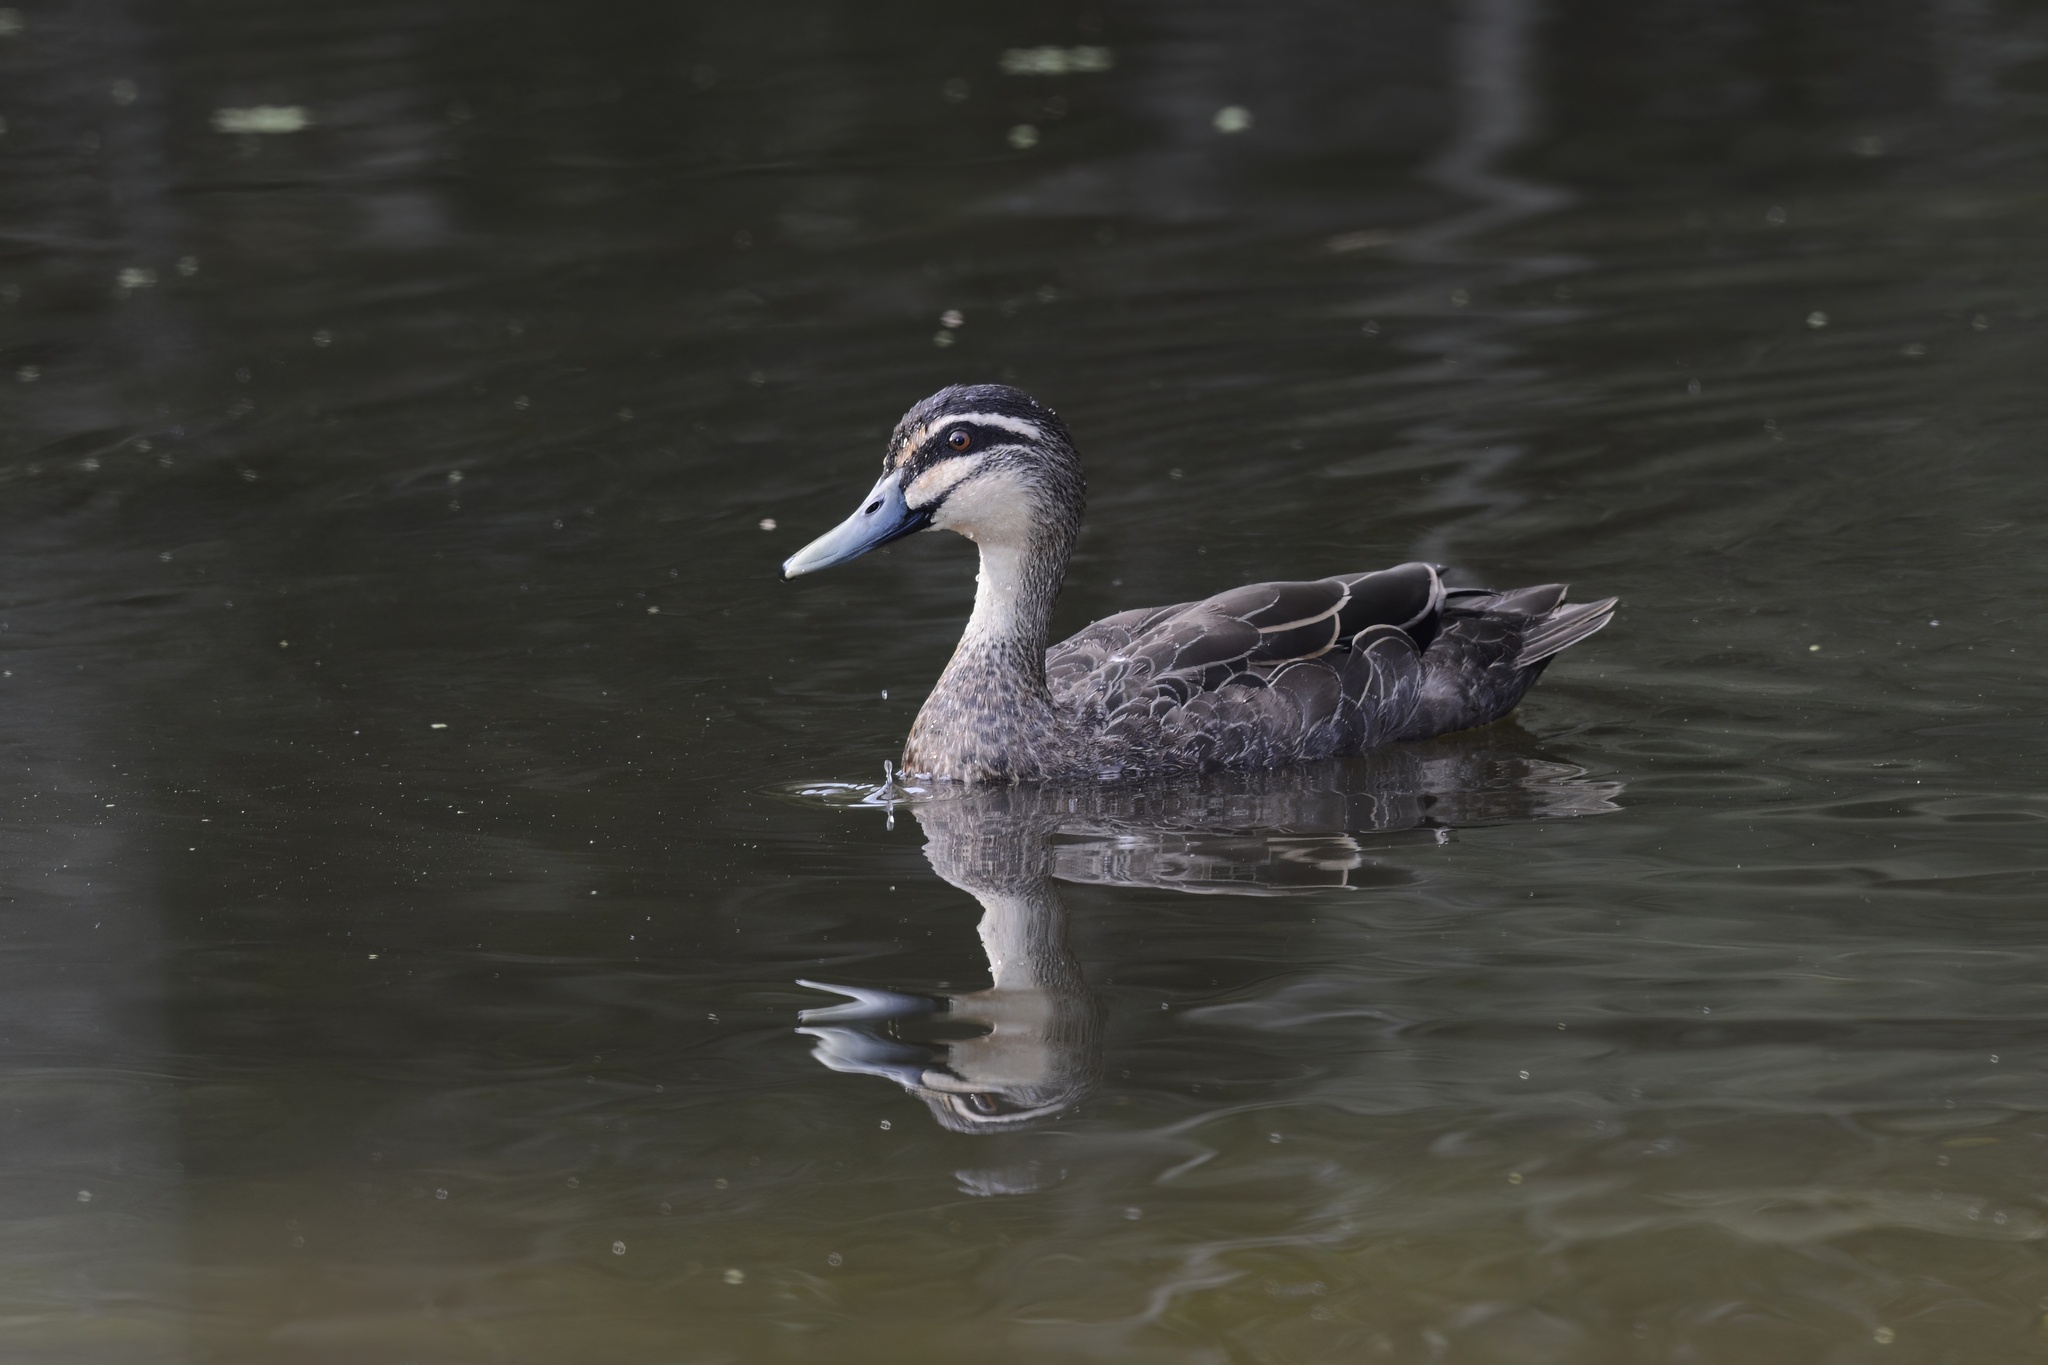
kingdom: Animalia
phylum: Chordata
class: Aves
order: Anseriformes
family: Anatidae
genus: Anas
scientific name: Anas superciliosa
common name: Pacific black duck
